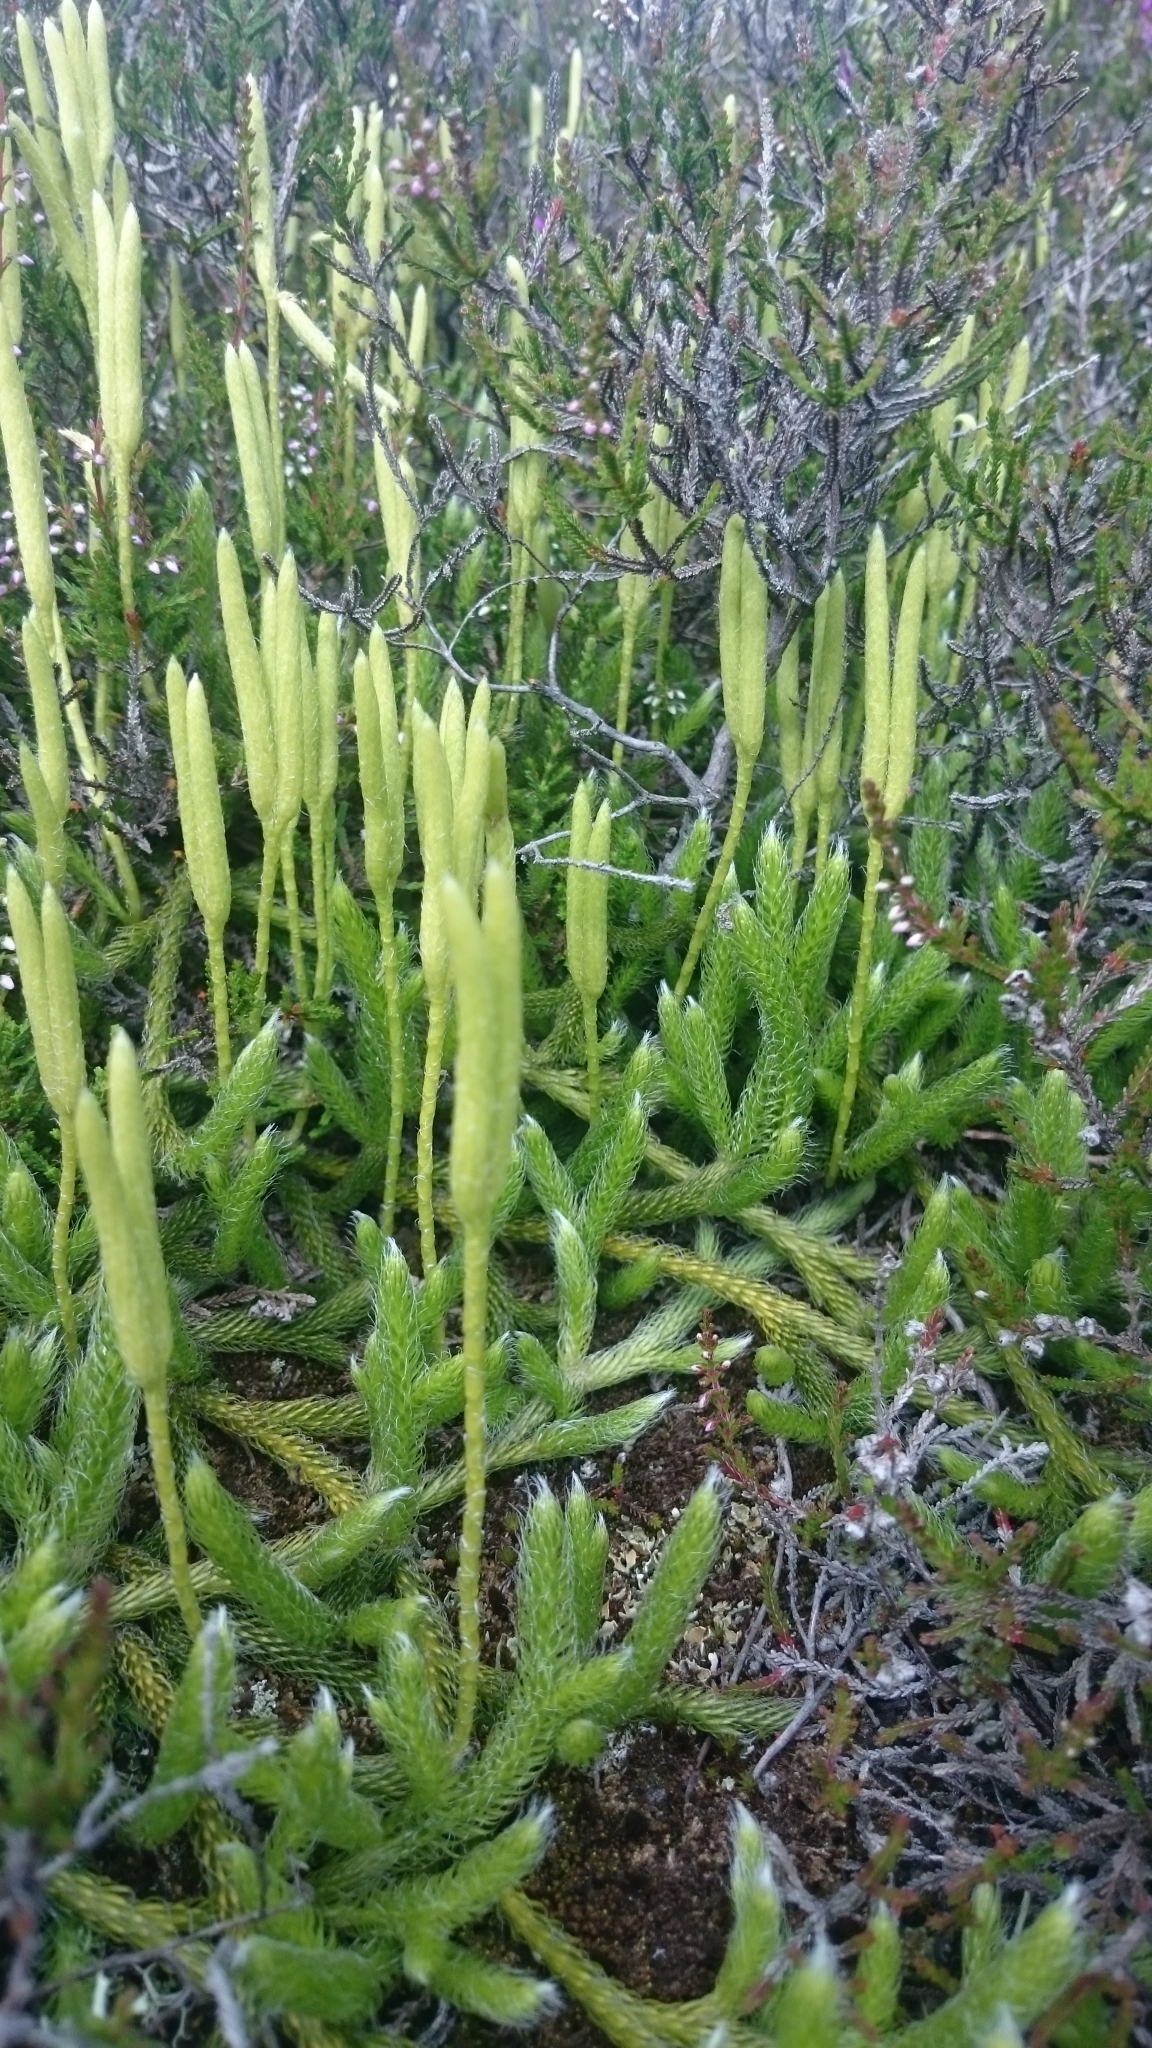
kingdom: Plantae
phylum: Tracheophyta
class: Lycopodiopsida
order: Lycopodiales
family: Lycopodiaceae
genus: Lycopodium
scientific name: Lycopodium clavatum
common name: Stag's-horn clubmoss
